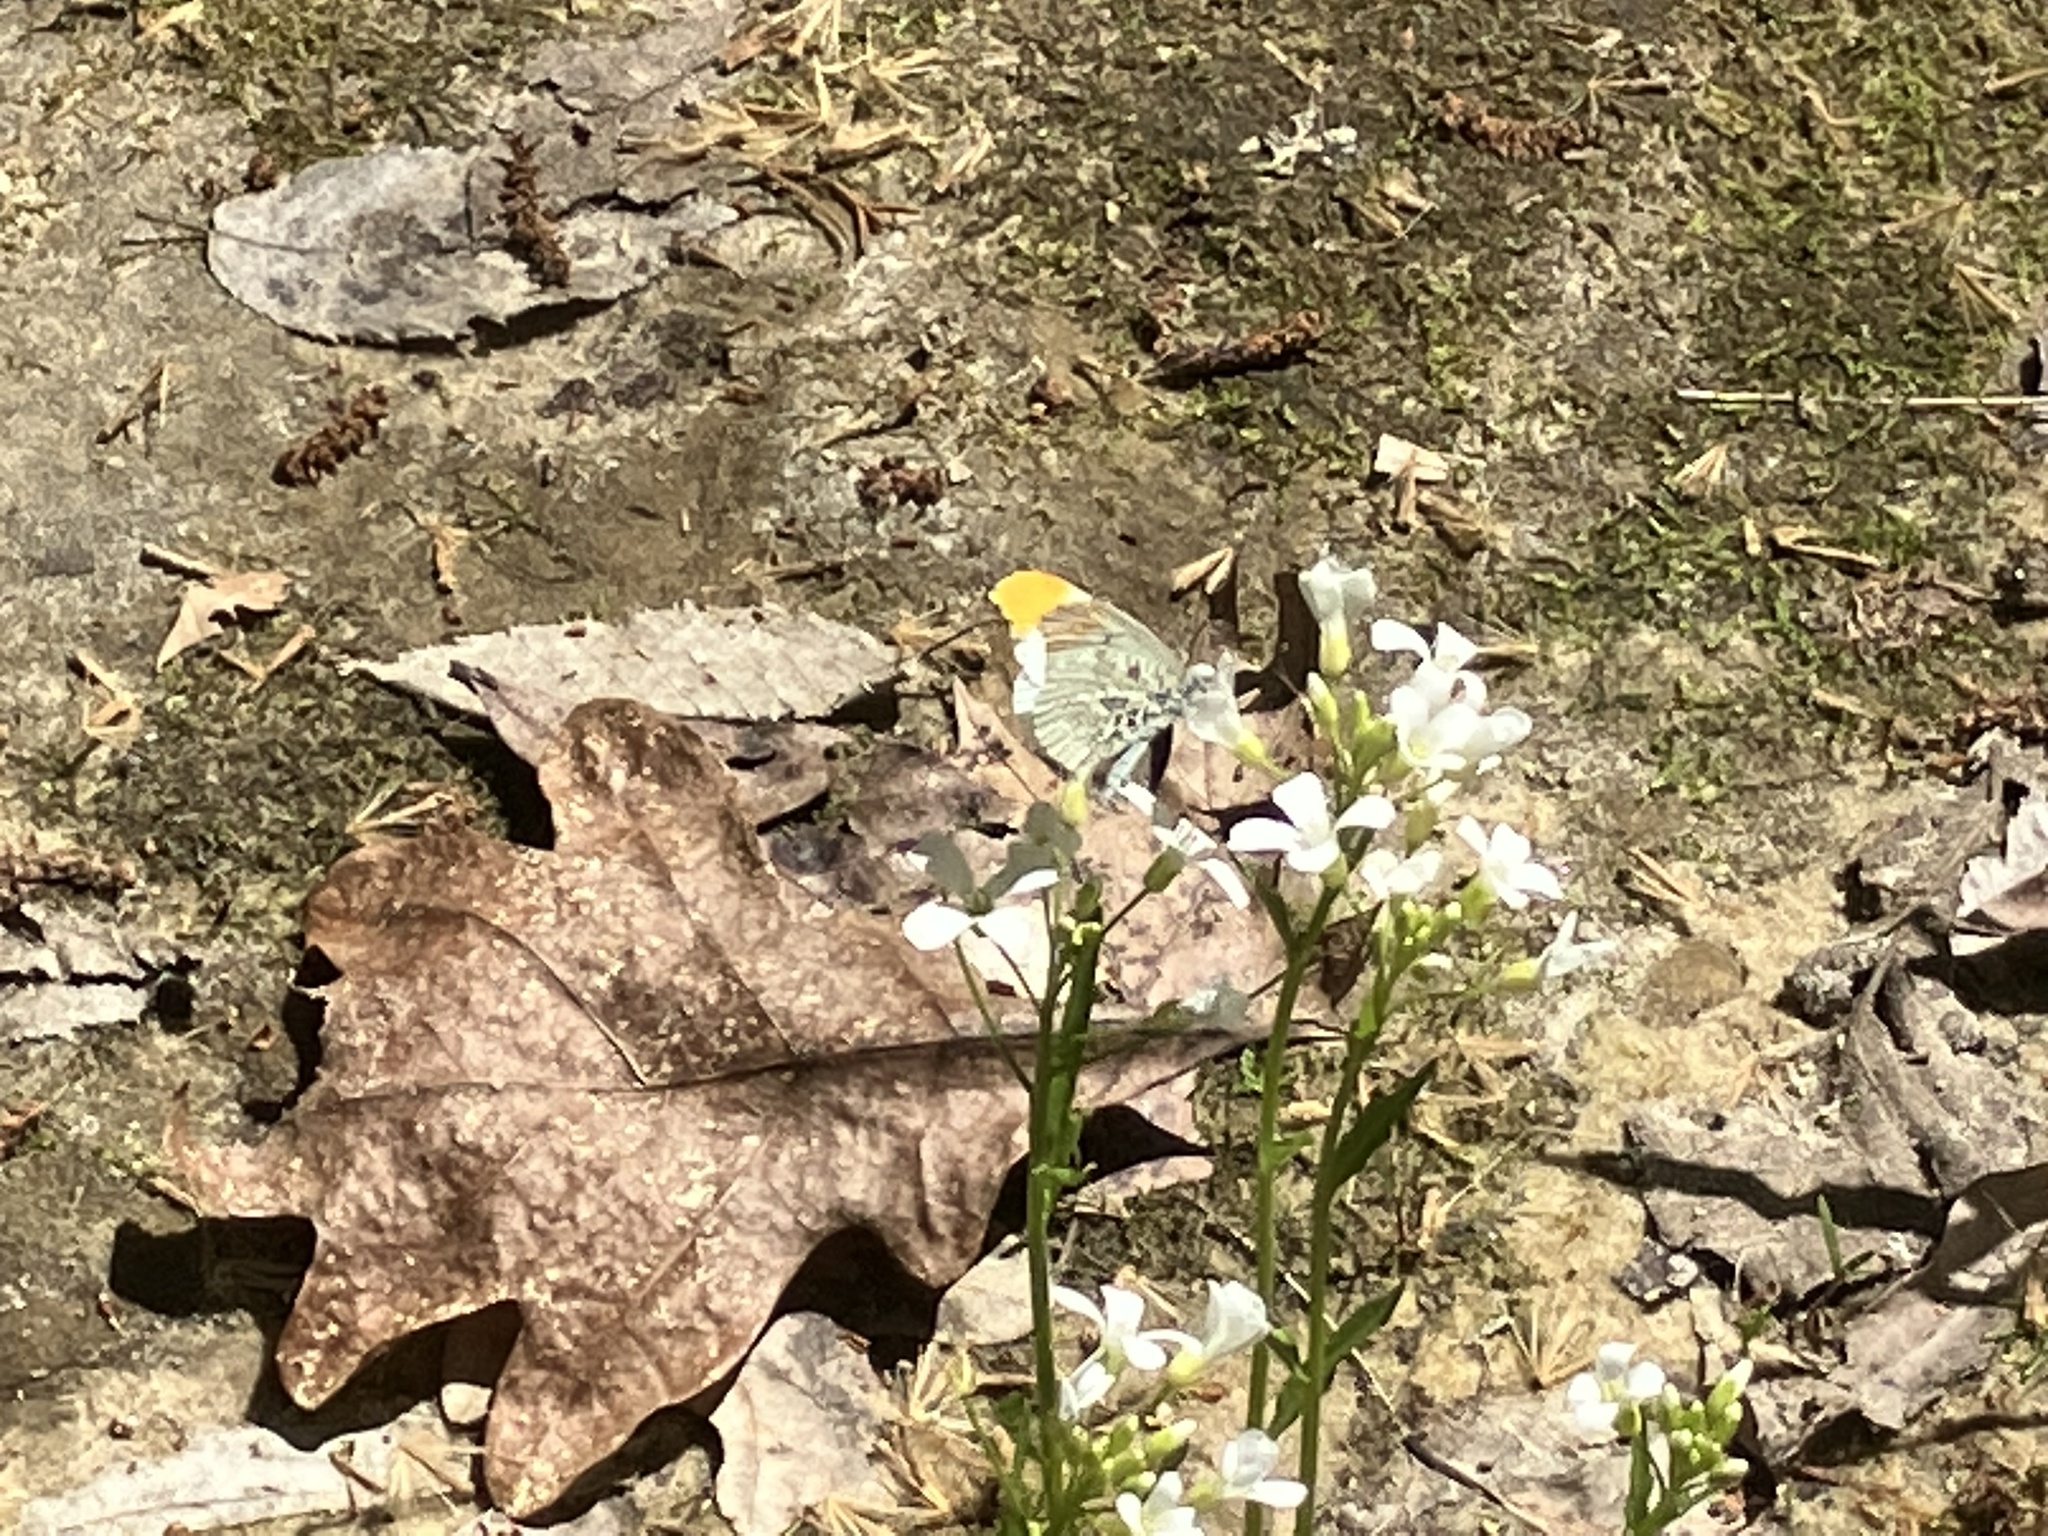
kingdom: Animalia
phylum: Arthropoda
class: Insecta
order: Lepidoptera
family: Pieridae
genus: Anthocharis
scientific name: Anthocharis midea
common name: Falcate orangetip
